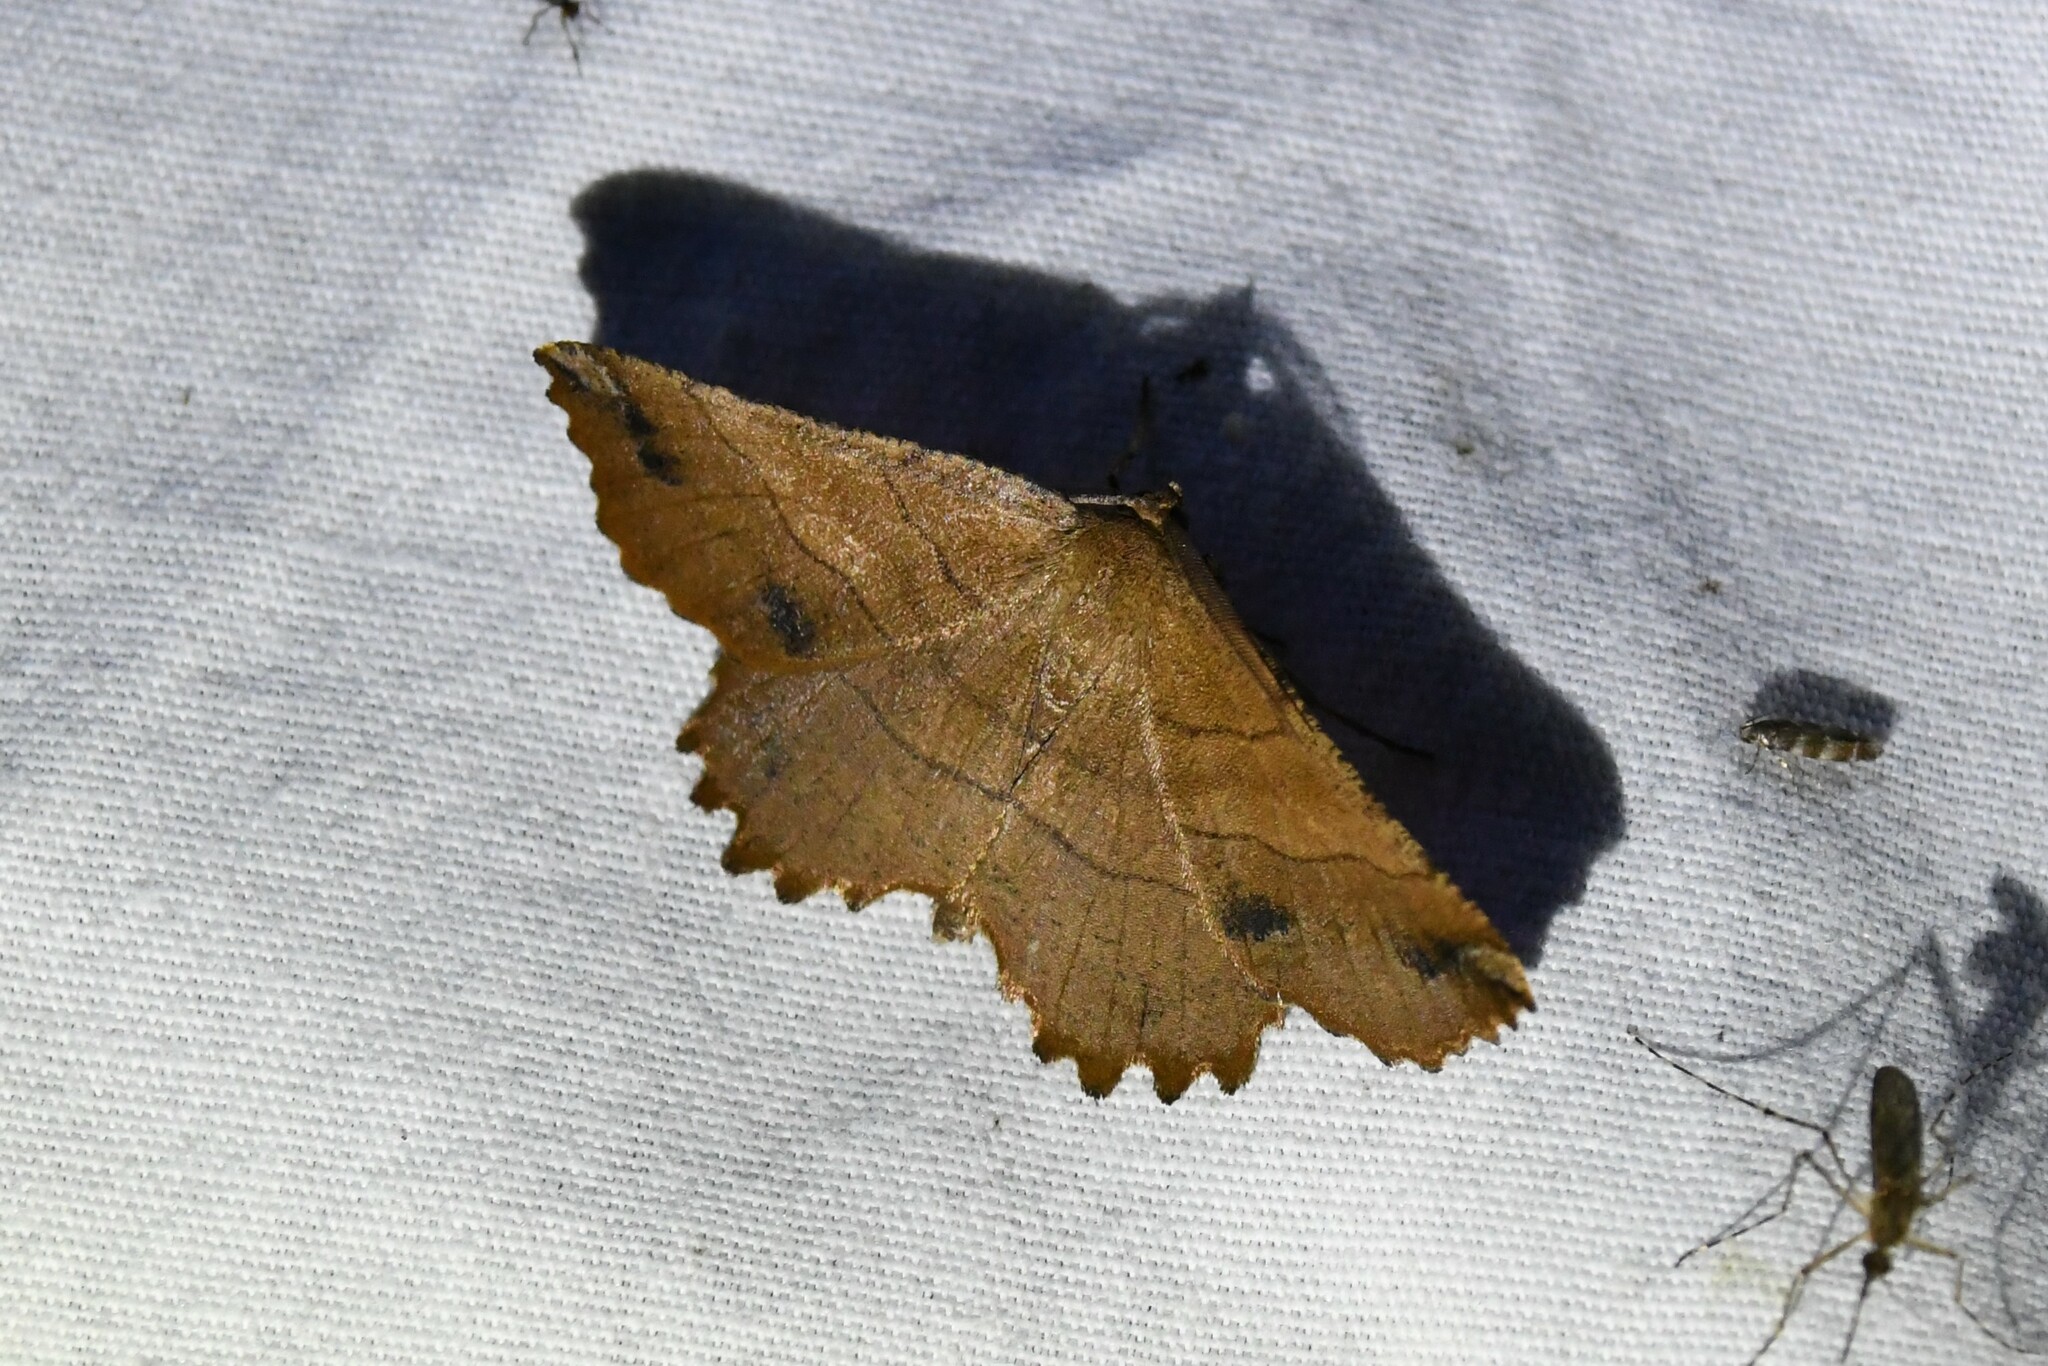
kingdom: Animalia
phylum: Arthropoda
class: Insecta
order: Lepidoptera
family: Geometridae
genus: Euchlaena
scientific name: Euchlaena johnsonaria
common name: Johnson's euchlaena
